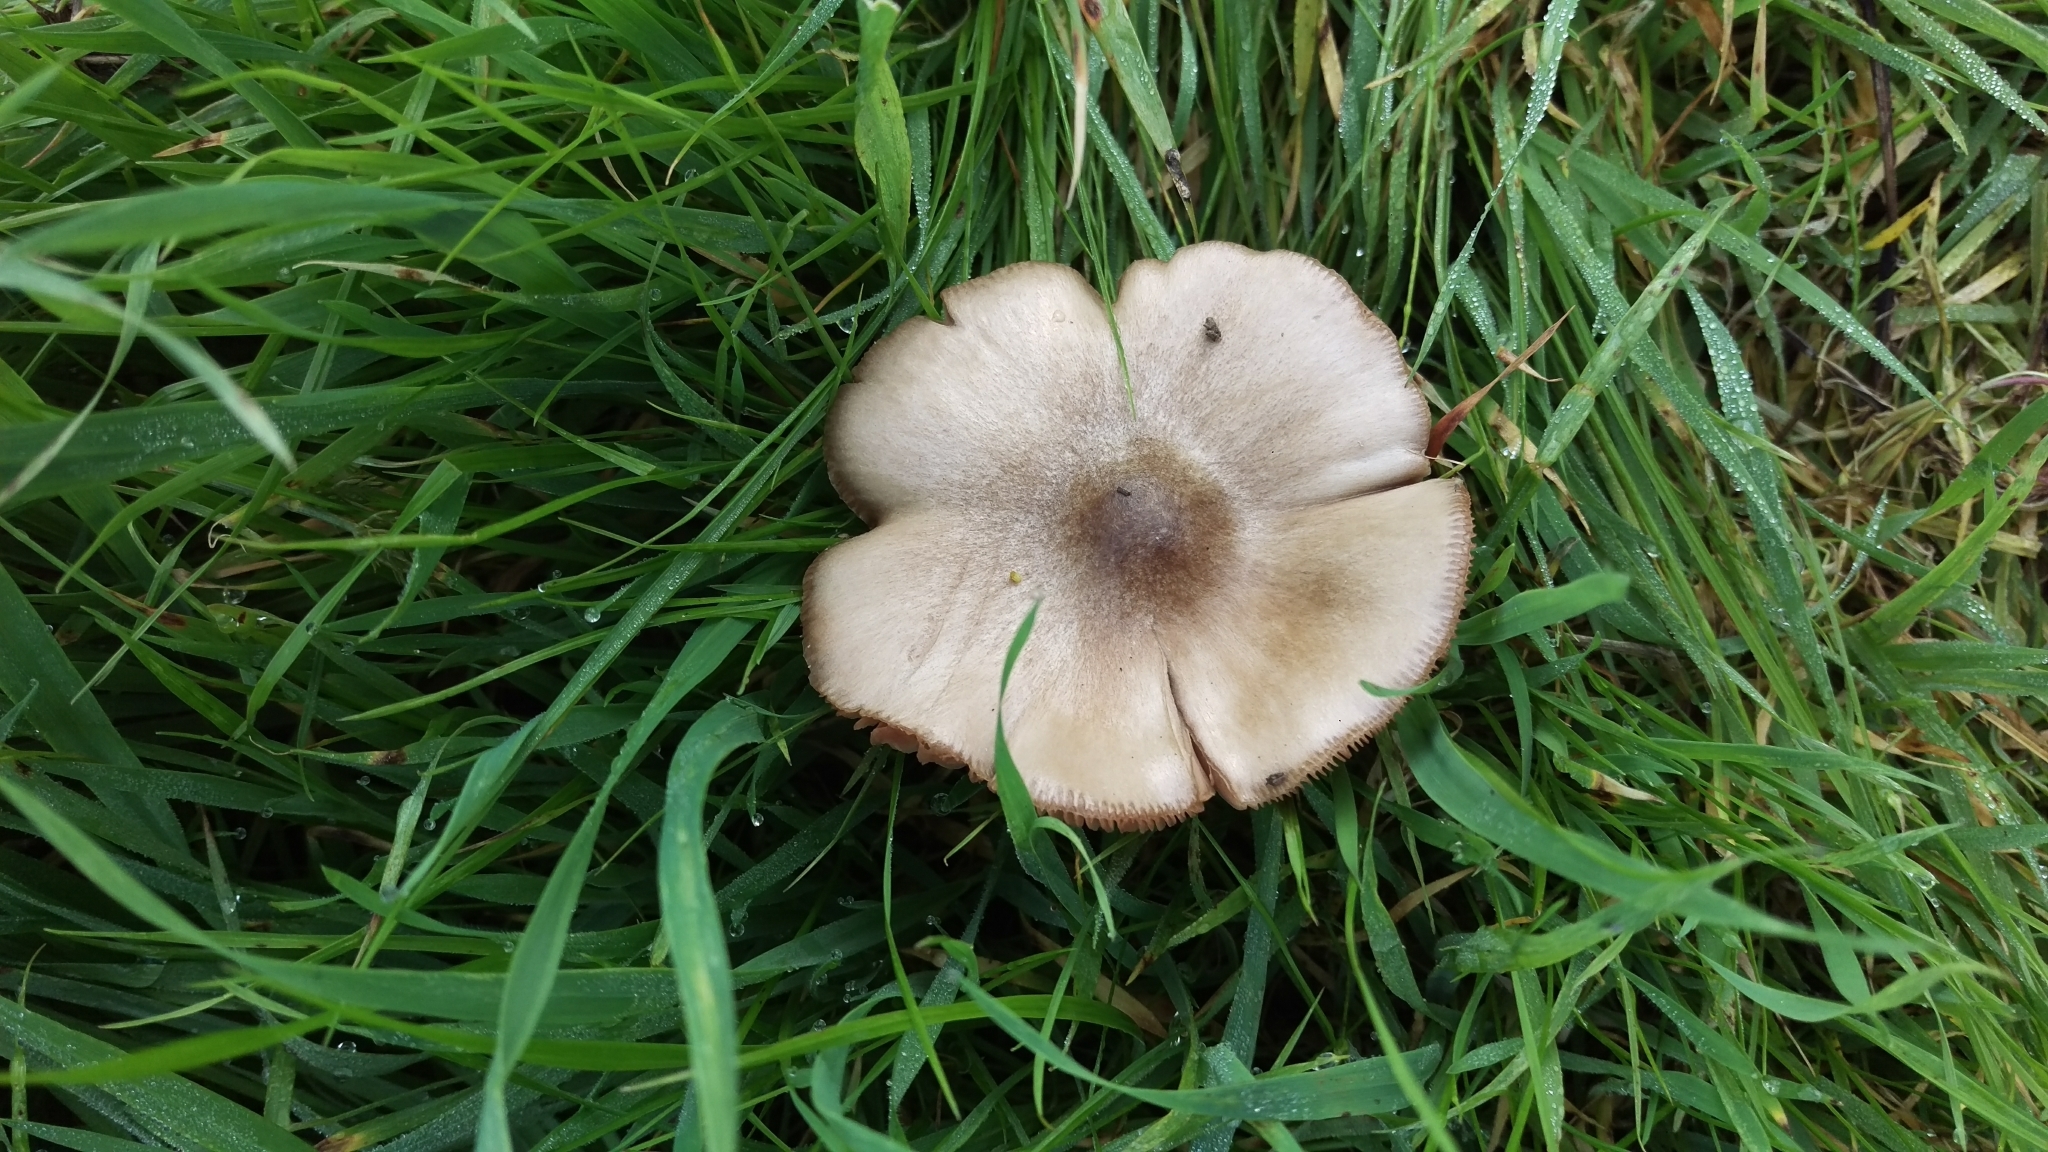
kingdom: Fungi
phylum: Basidiomycota
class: Agaricomycetes
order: Agaricales
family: Pluteaceae
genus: Volvopluteus
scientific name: Volvopluteus gloiocephalus
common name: Stubble rosegill
